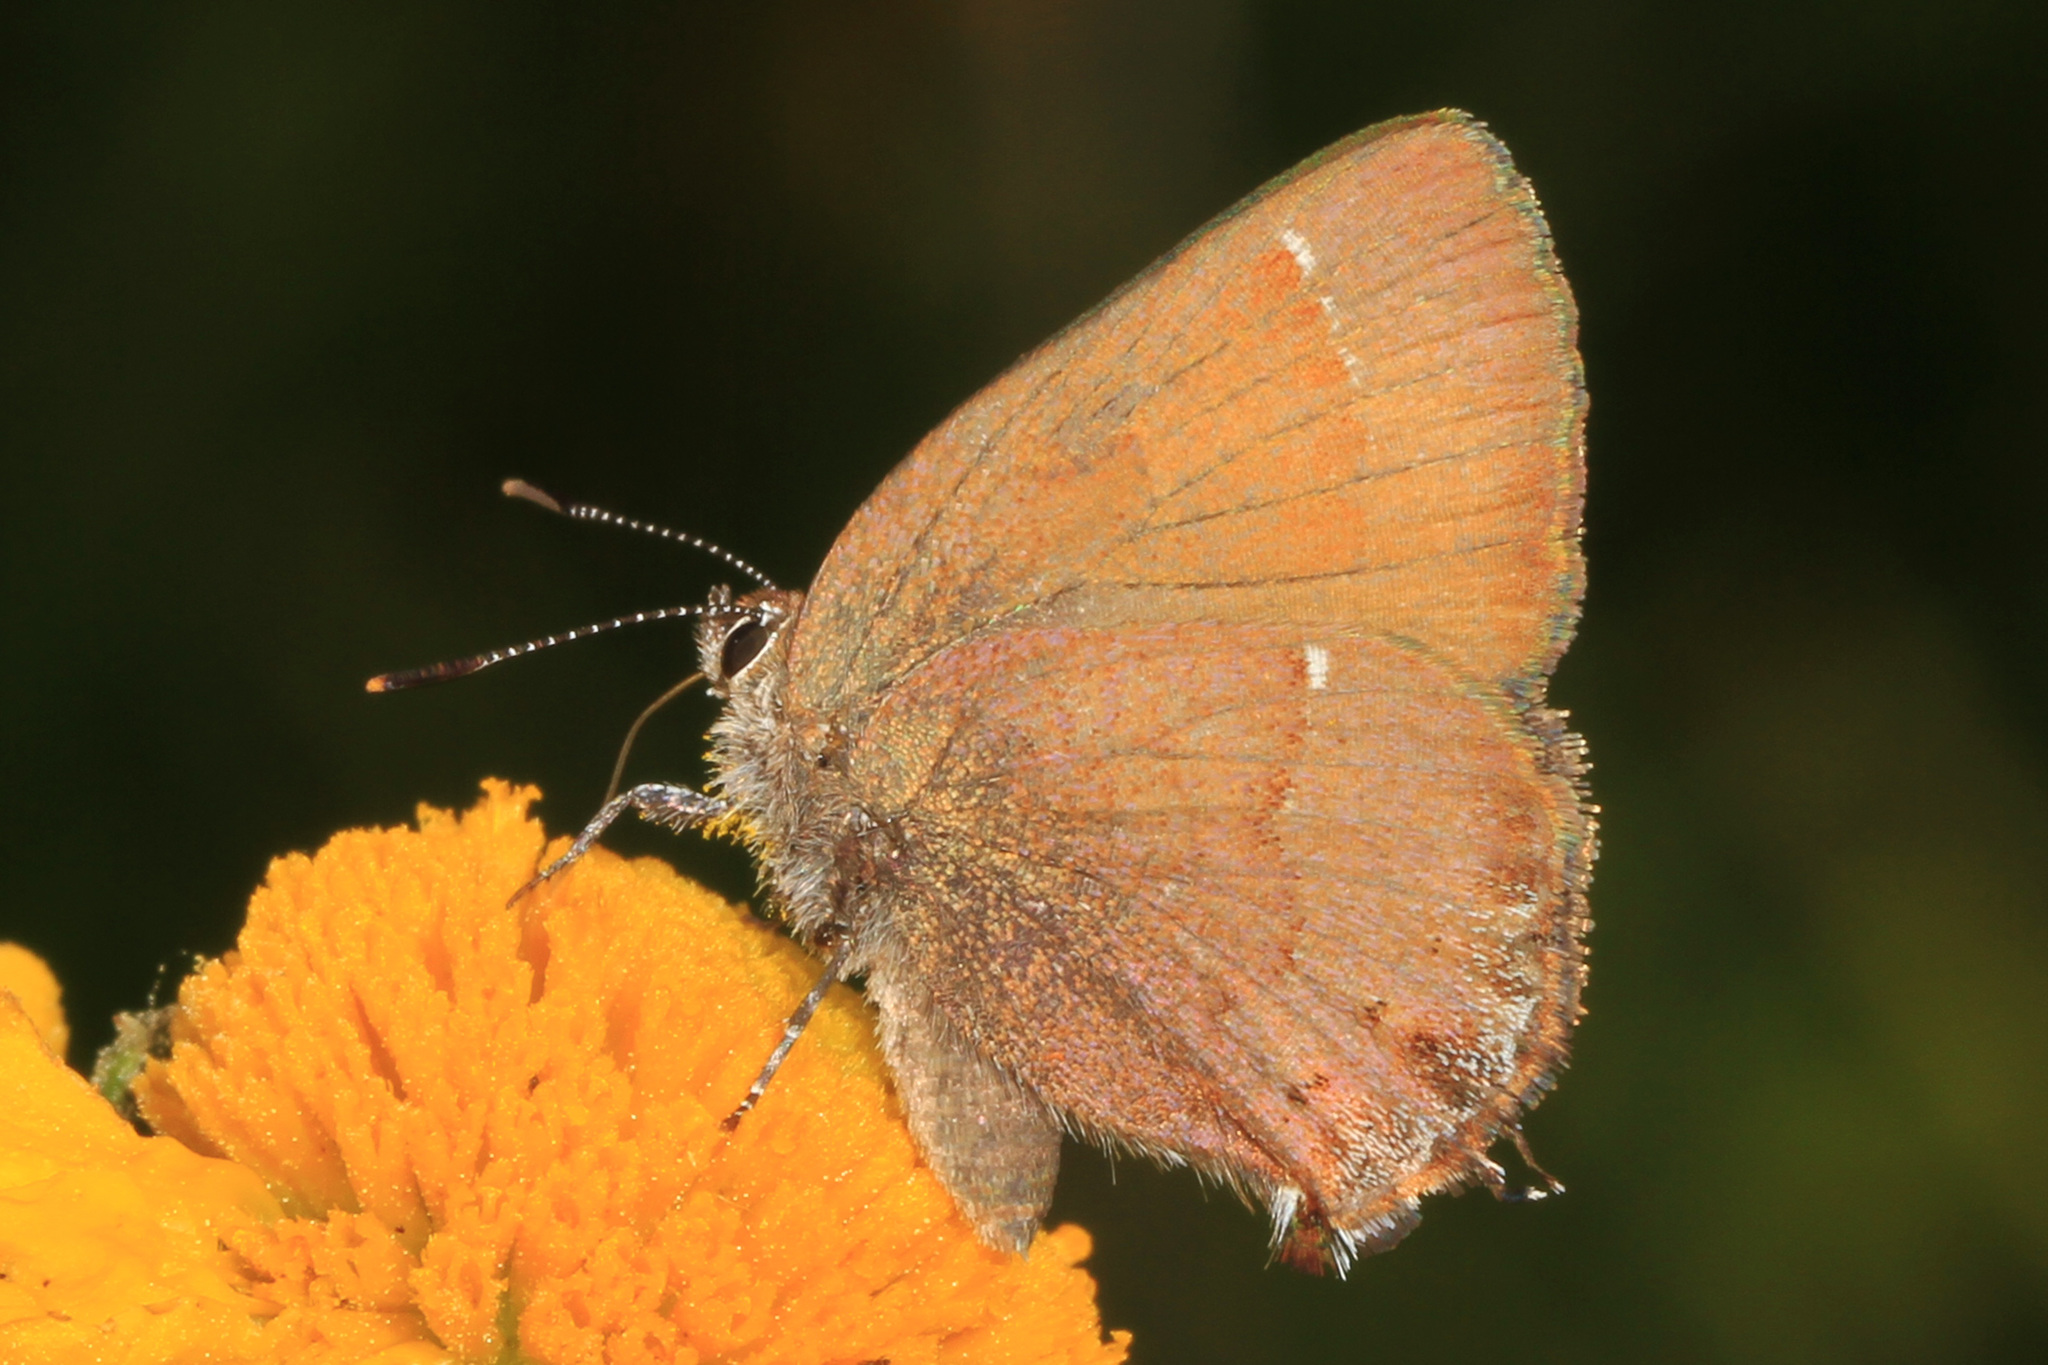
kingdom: Animalia
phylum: Arthropoda
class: Insecta
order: Lepidoptera
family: Lycaenidae
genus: Mitoura
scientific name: Mitoura nelsoni
